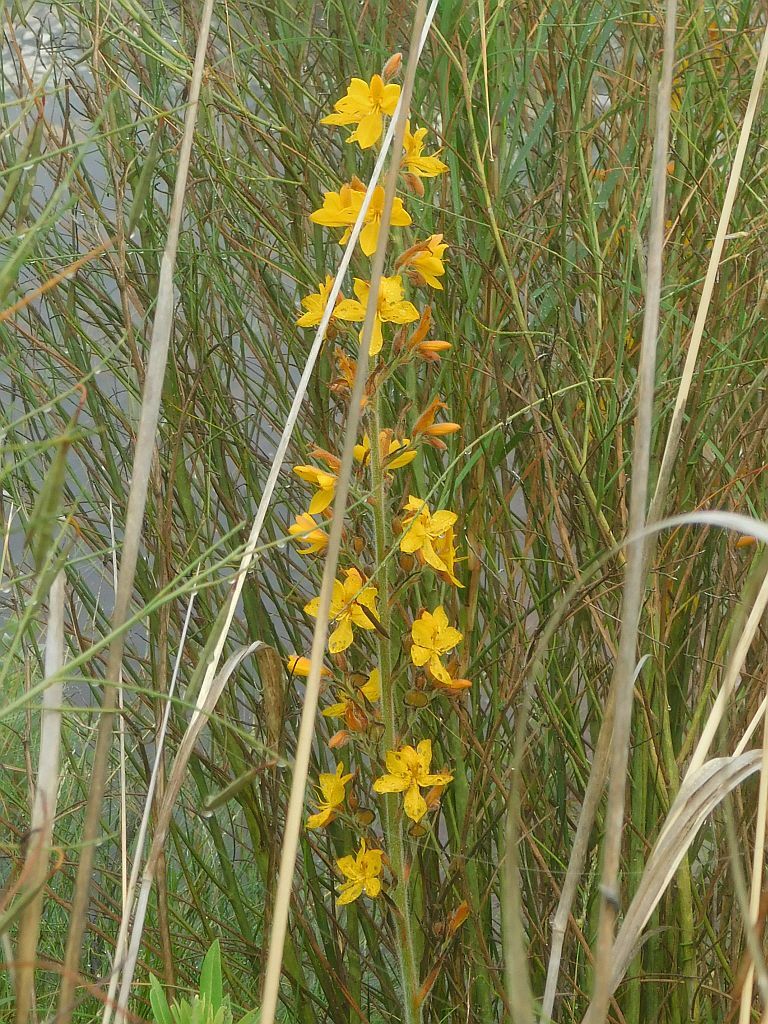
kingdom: Plantae
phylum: Tracheophyta
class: Liliopsida
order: Commelinales
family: Haemodoraceae
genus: Wachendorfia
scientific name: Wachendorfia thyrsiflora
